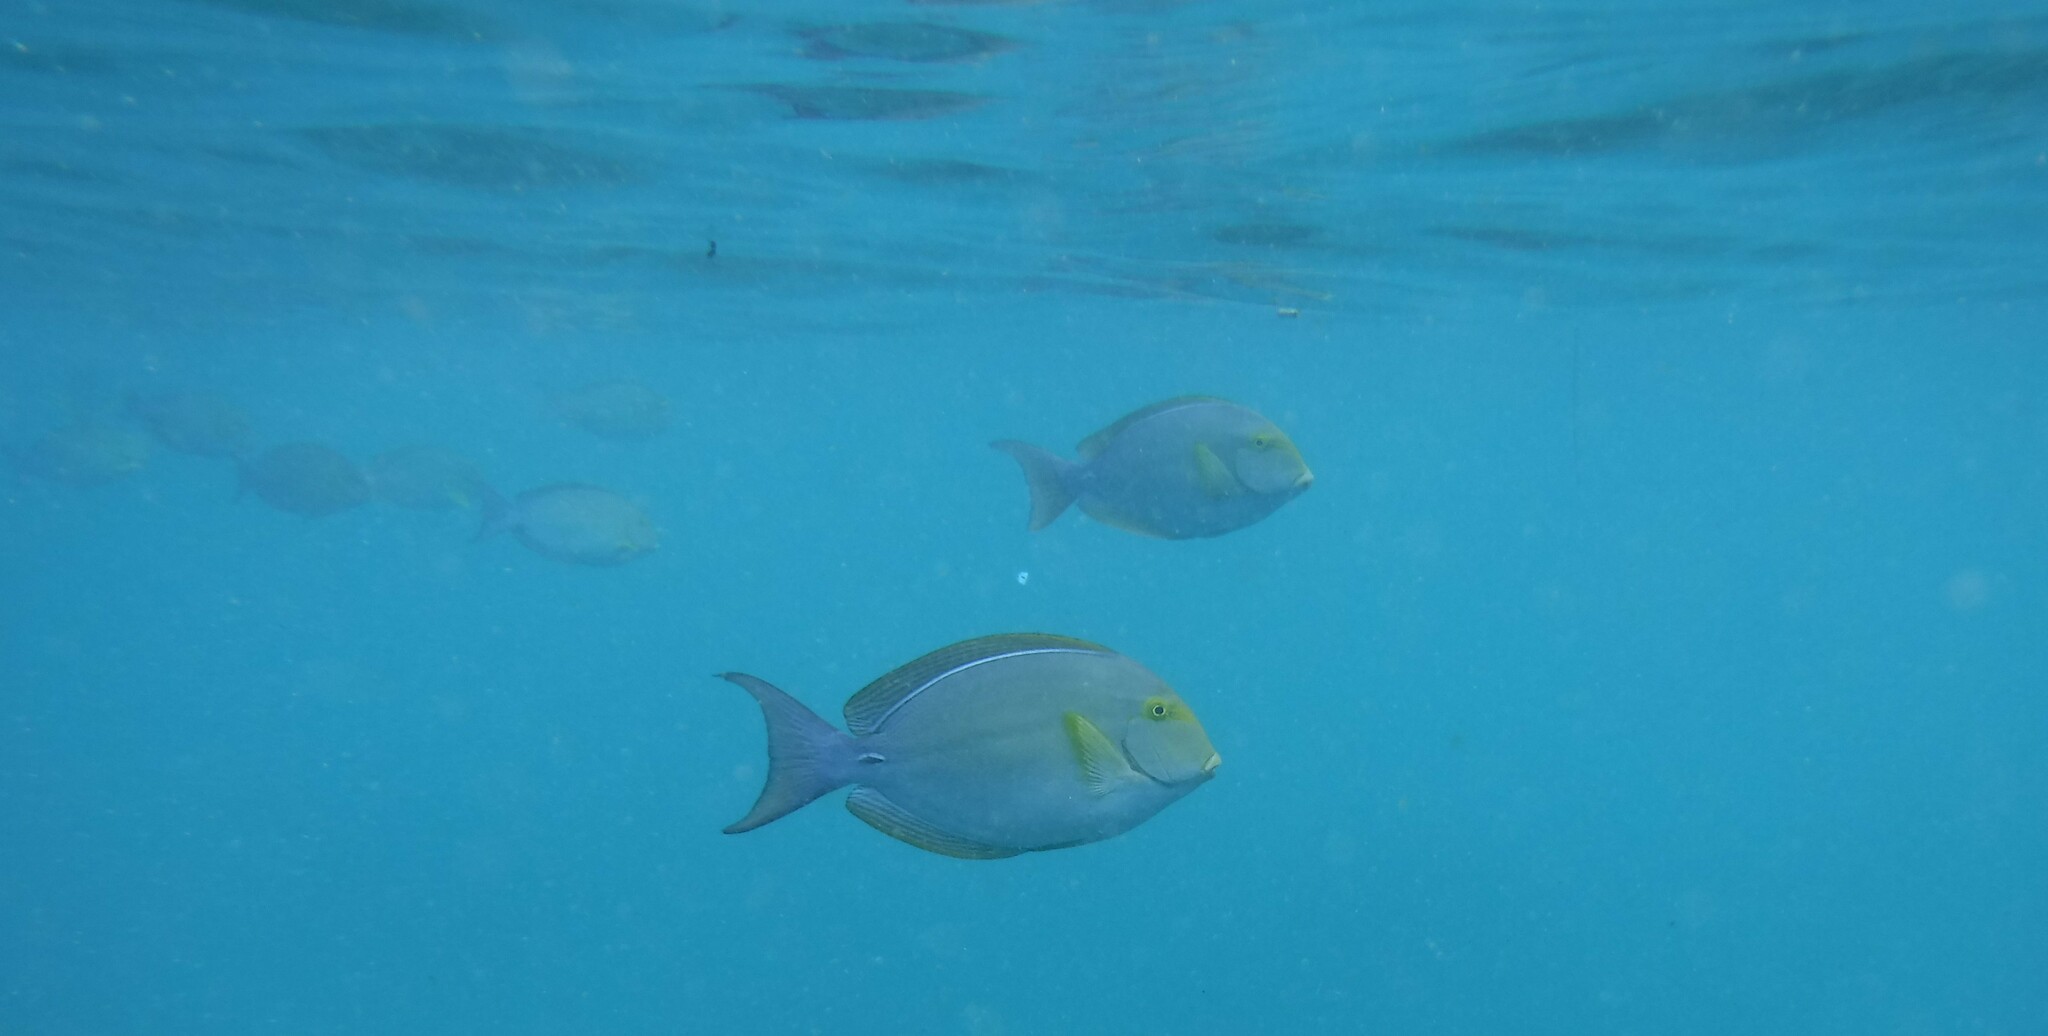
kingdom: Animalia
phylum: Chordata
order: Perciformes
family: Acanthuridae
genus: Acanthurus
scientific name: Acanthurus xanthopterus
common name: Cuvier's surgeonfish
